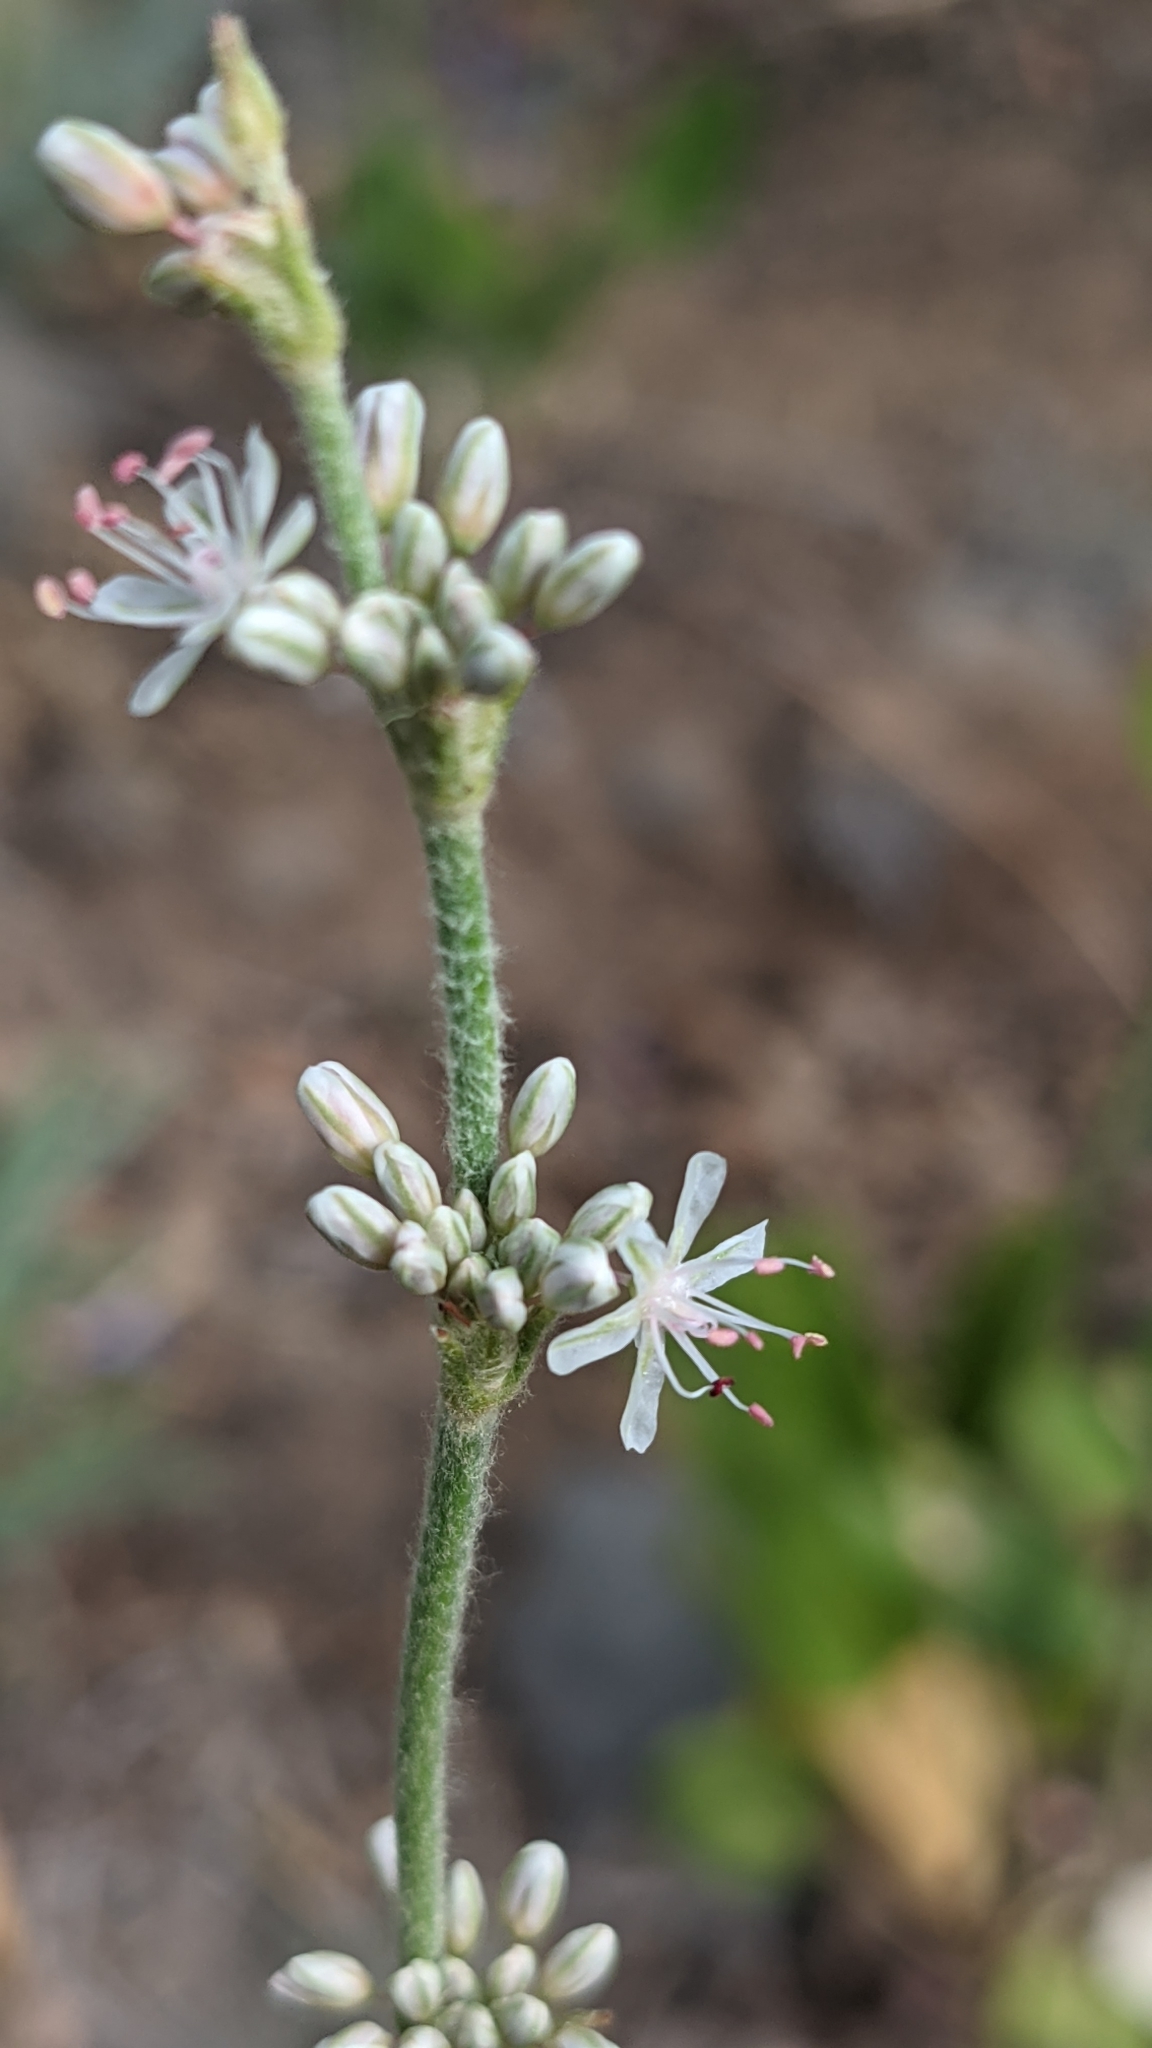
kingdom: Plantae
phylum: Tracheophyta
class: Magnoliopsida
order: Caryophyllales
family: Polygonaceae
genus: Eriogonum
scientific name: Eriogonum racemosum
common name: Redroot wild buckwheat
